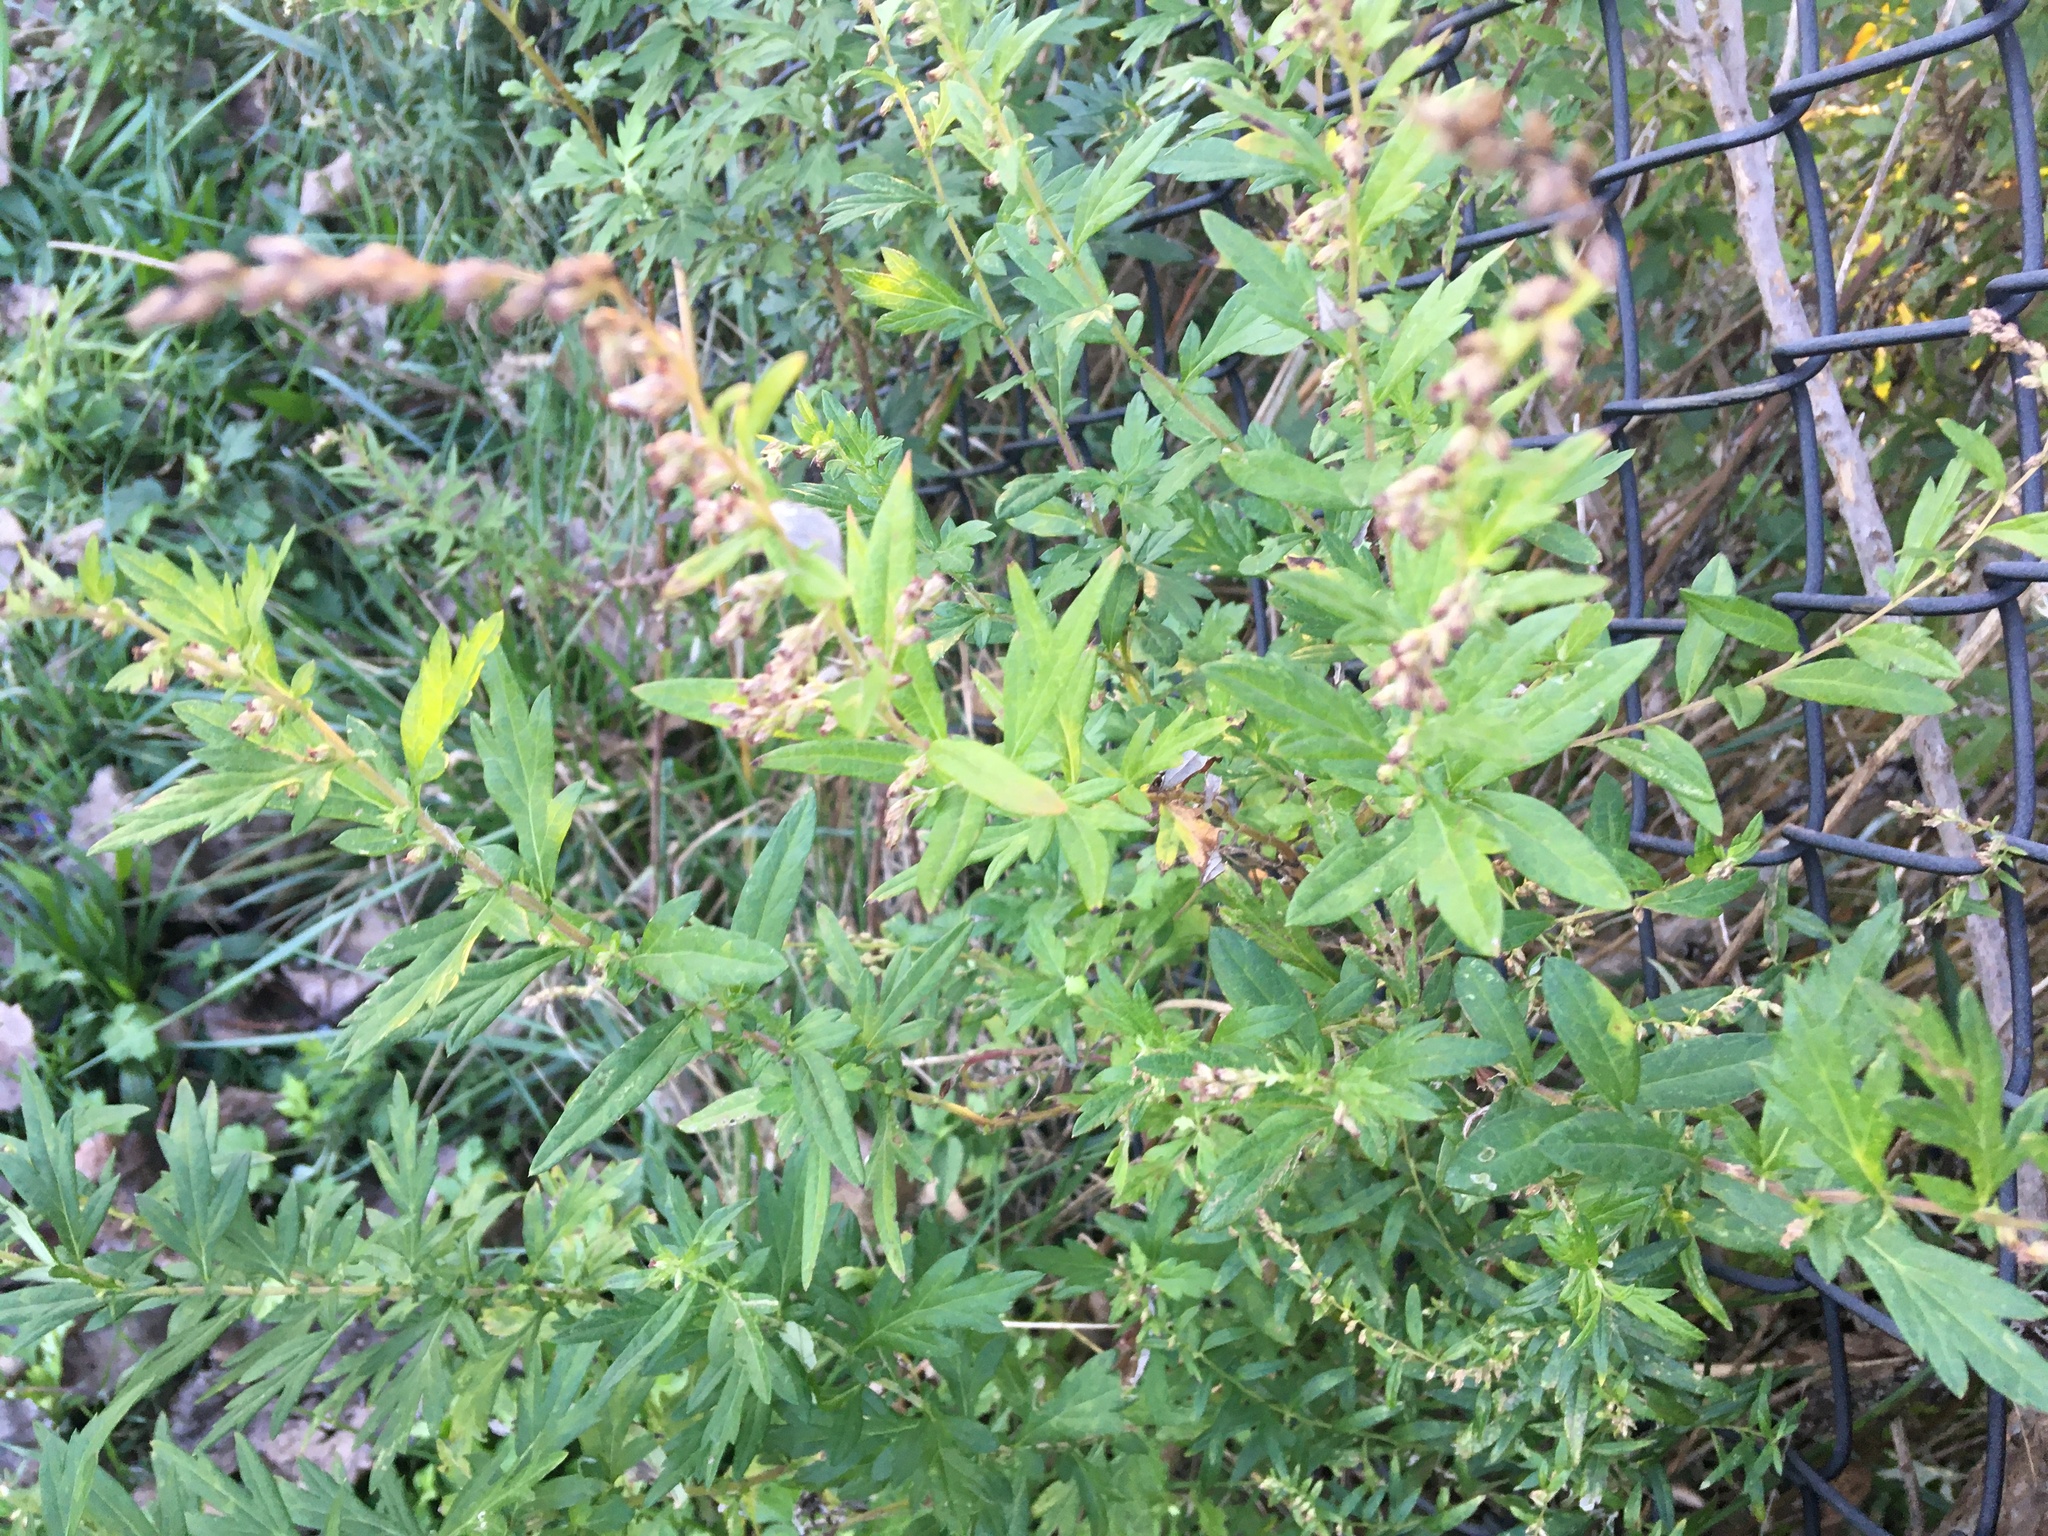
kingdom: Plantae
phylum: Tracheophyta
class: Magnoliopsida
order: Asterales
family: Asteraceae
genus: Artemisia
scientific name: Artemisia vulgaris
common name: Mugwort
